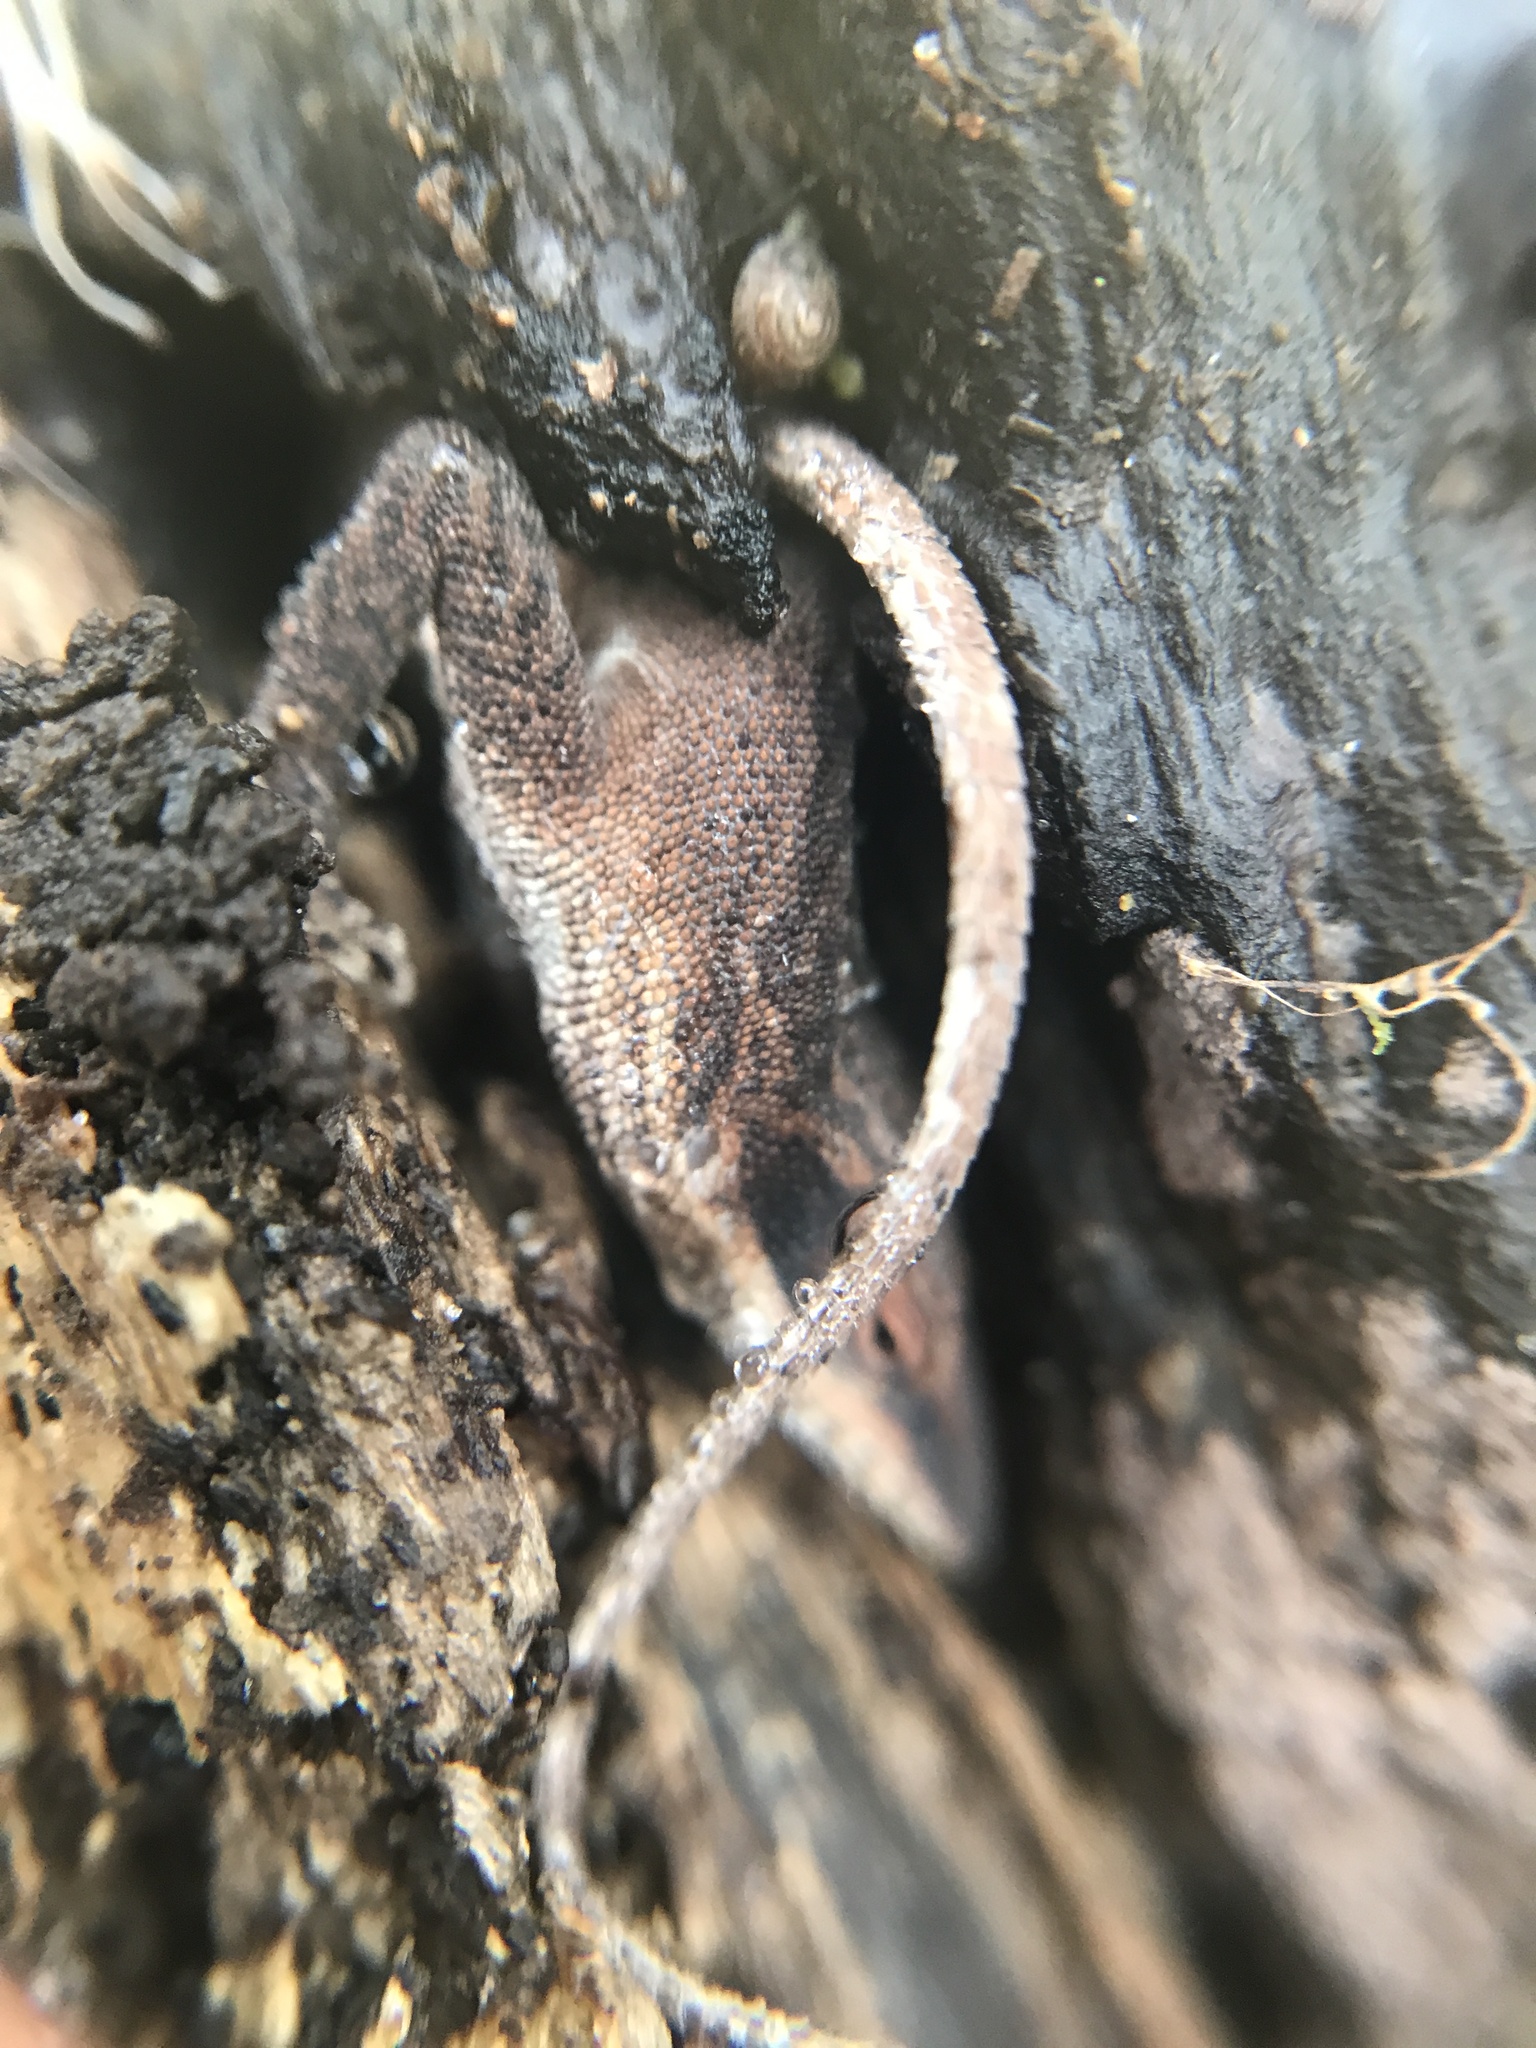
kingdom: Animalia
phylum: Chordata
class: Squamata
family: Dactyloidae
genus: Anolis
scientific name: Anolis carolinensis
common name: Green anole
